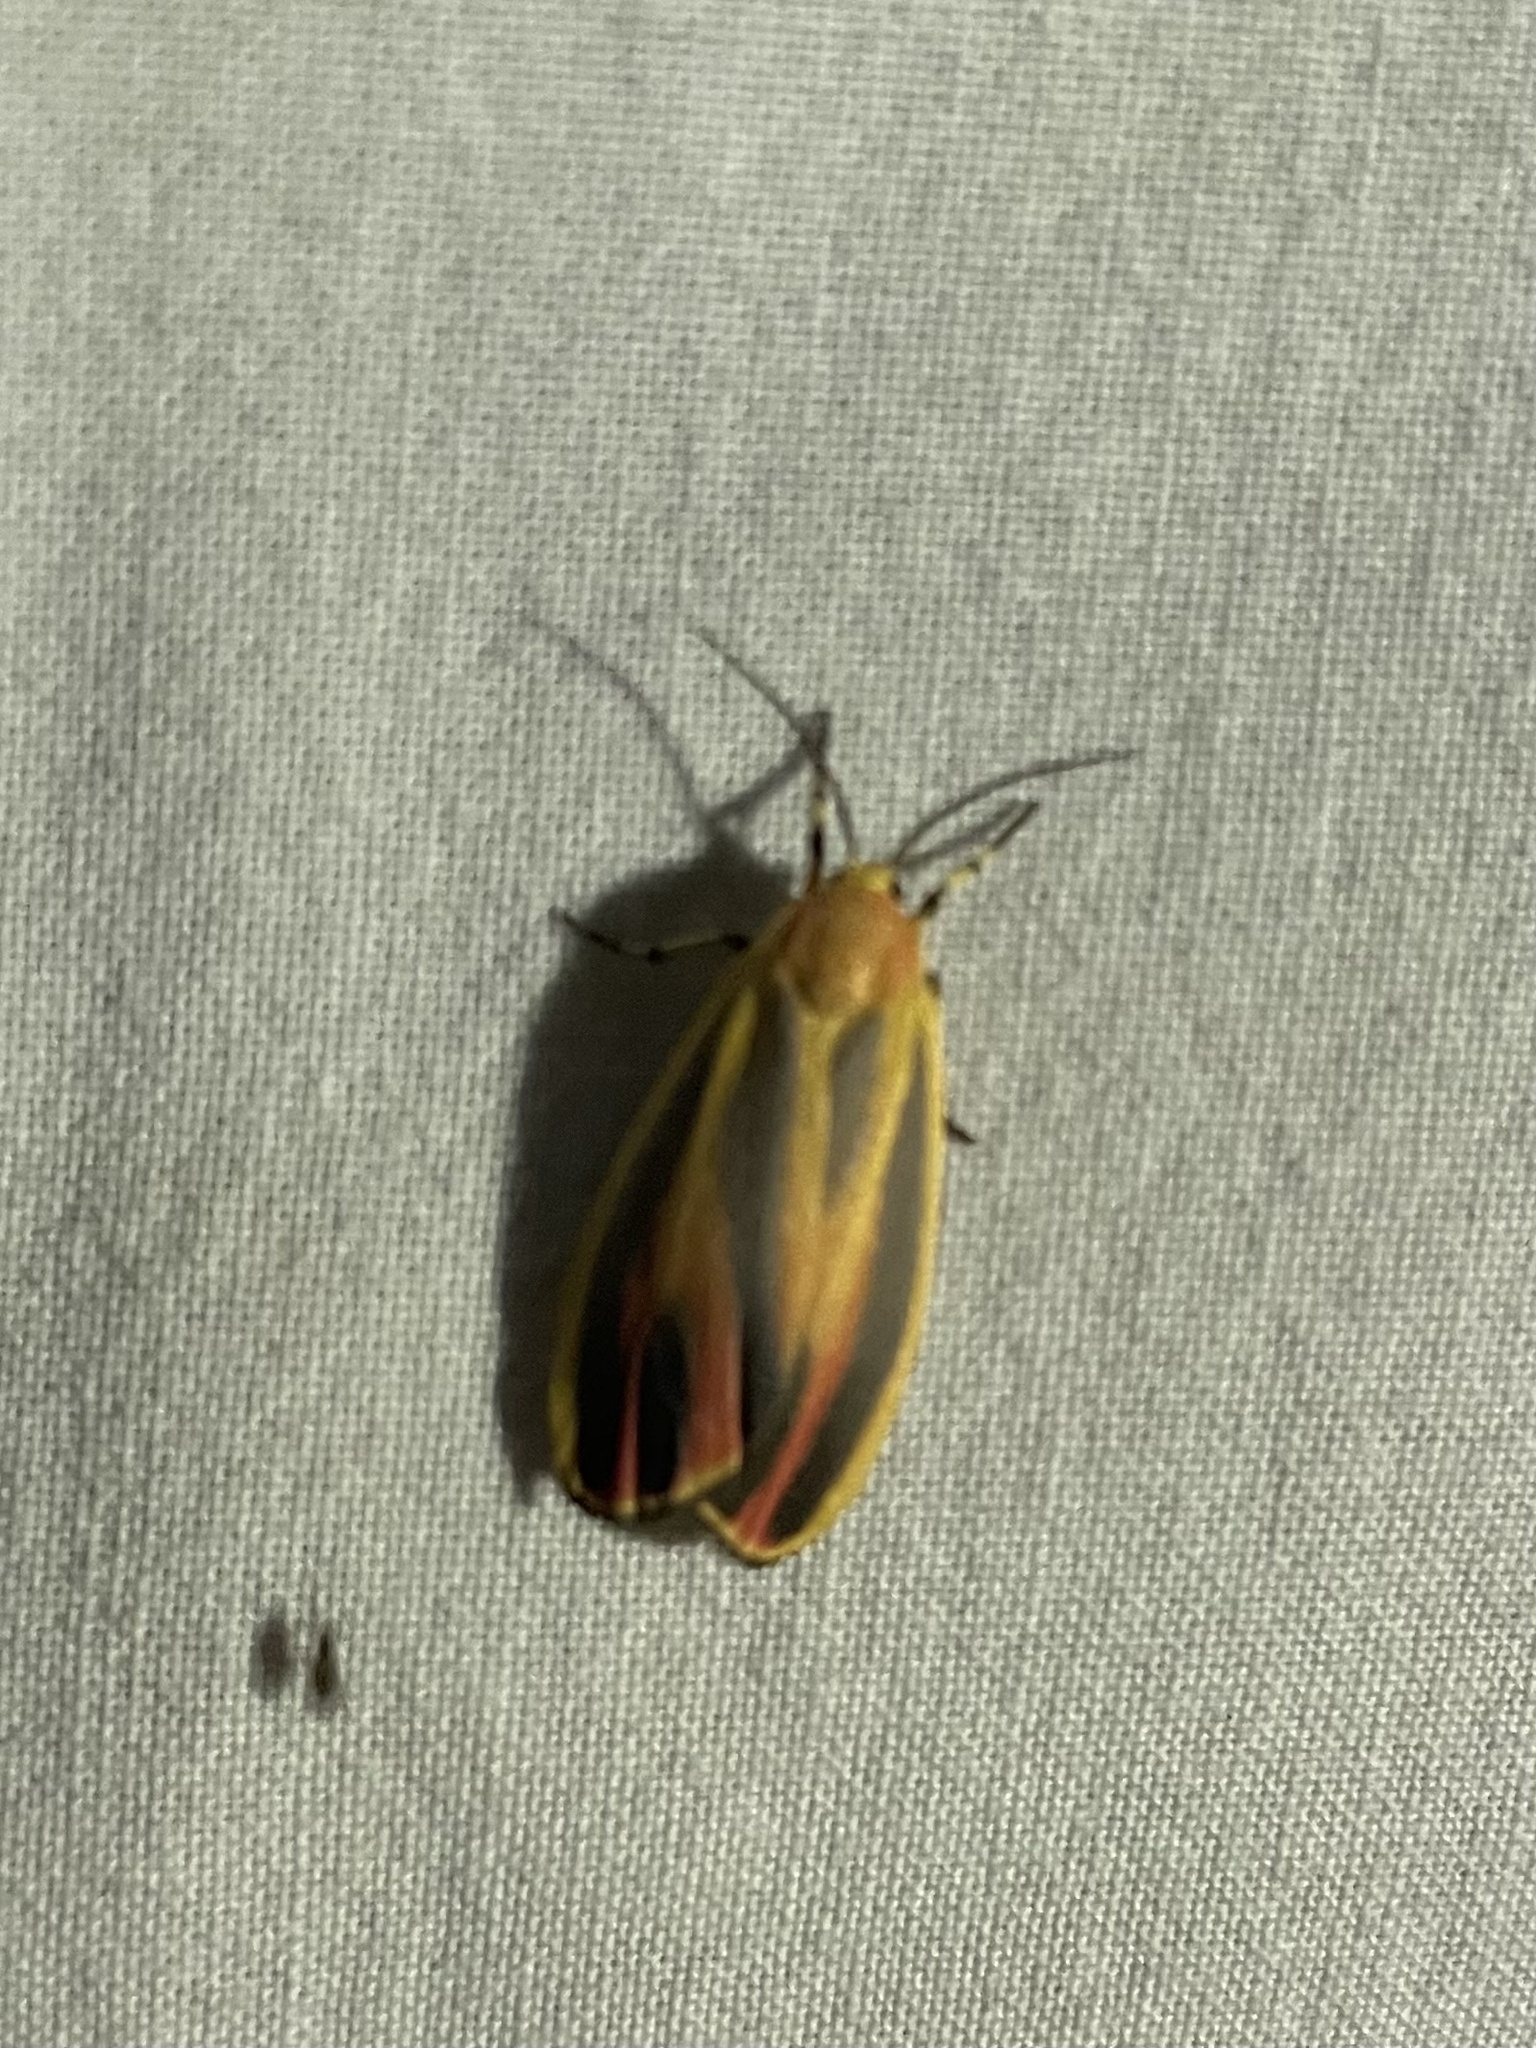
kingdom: Animalia
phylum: Arthropoda
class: Insecta
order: Lepidoptera
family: Erebidae
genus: Hypoprepia
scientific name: Hypoprepia fucosa
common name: Painted lichen moth
